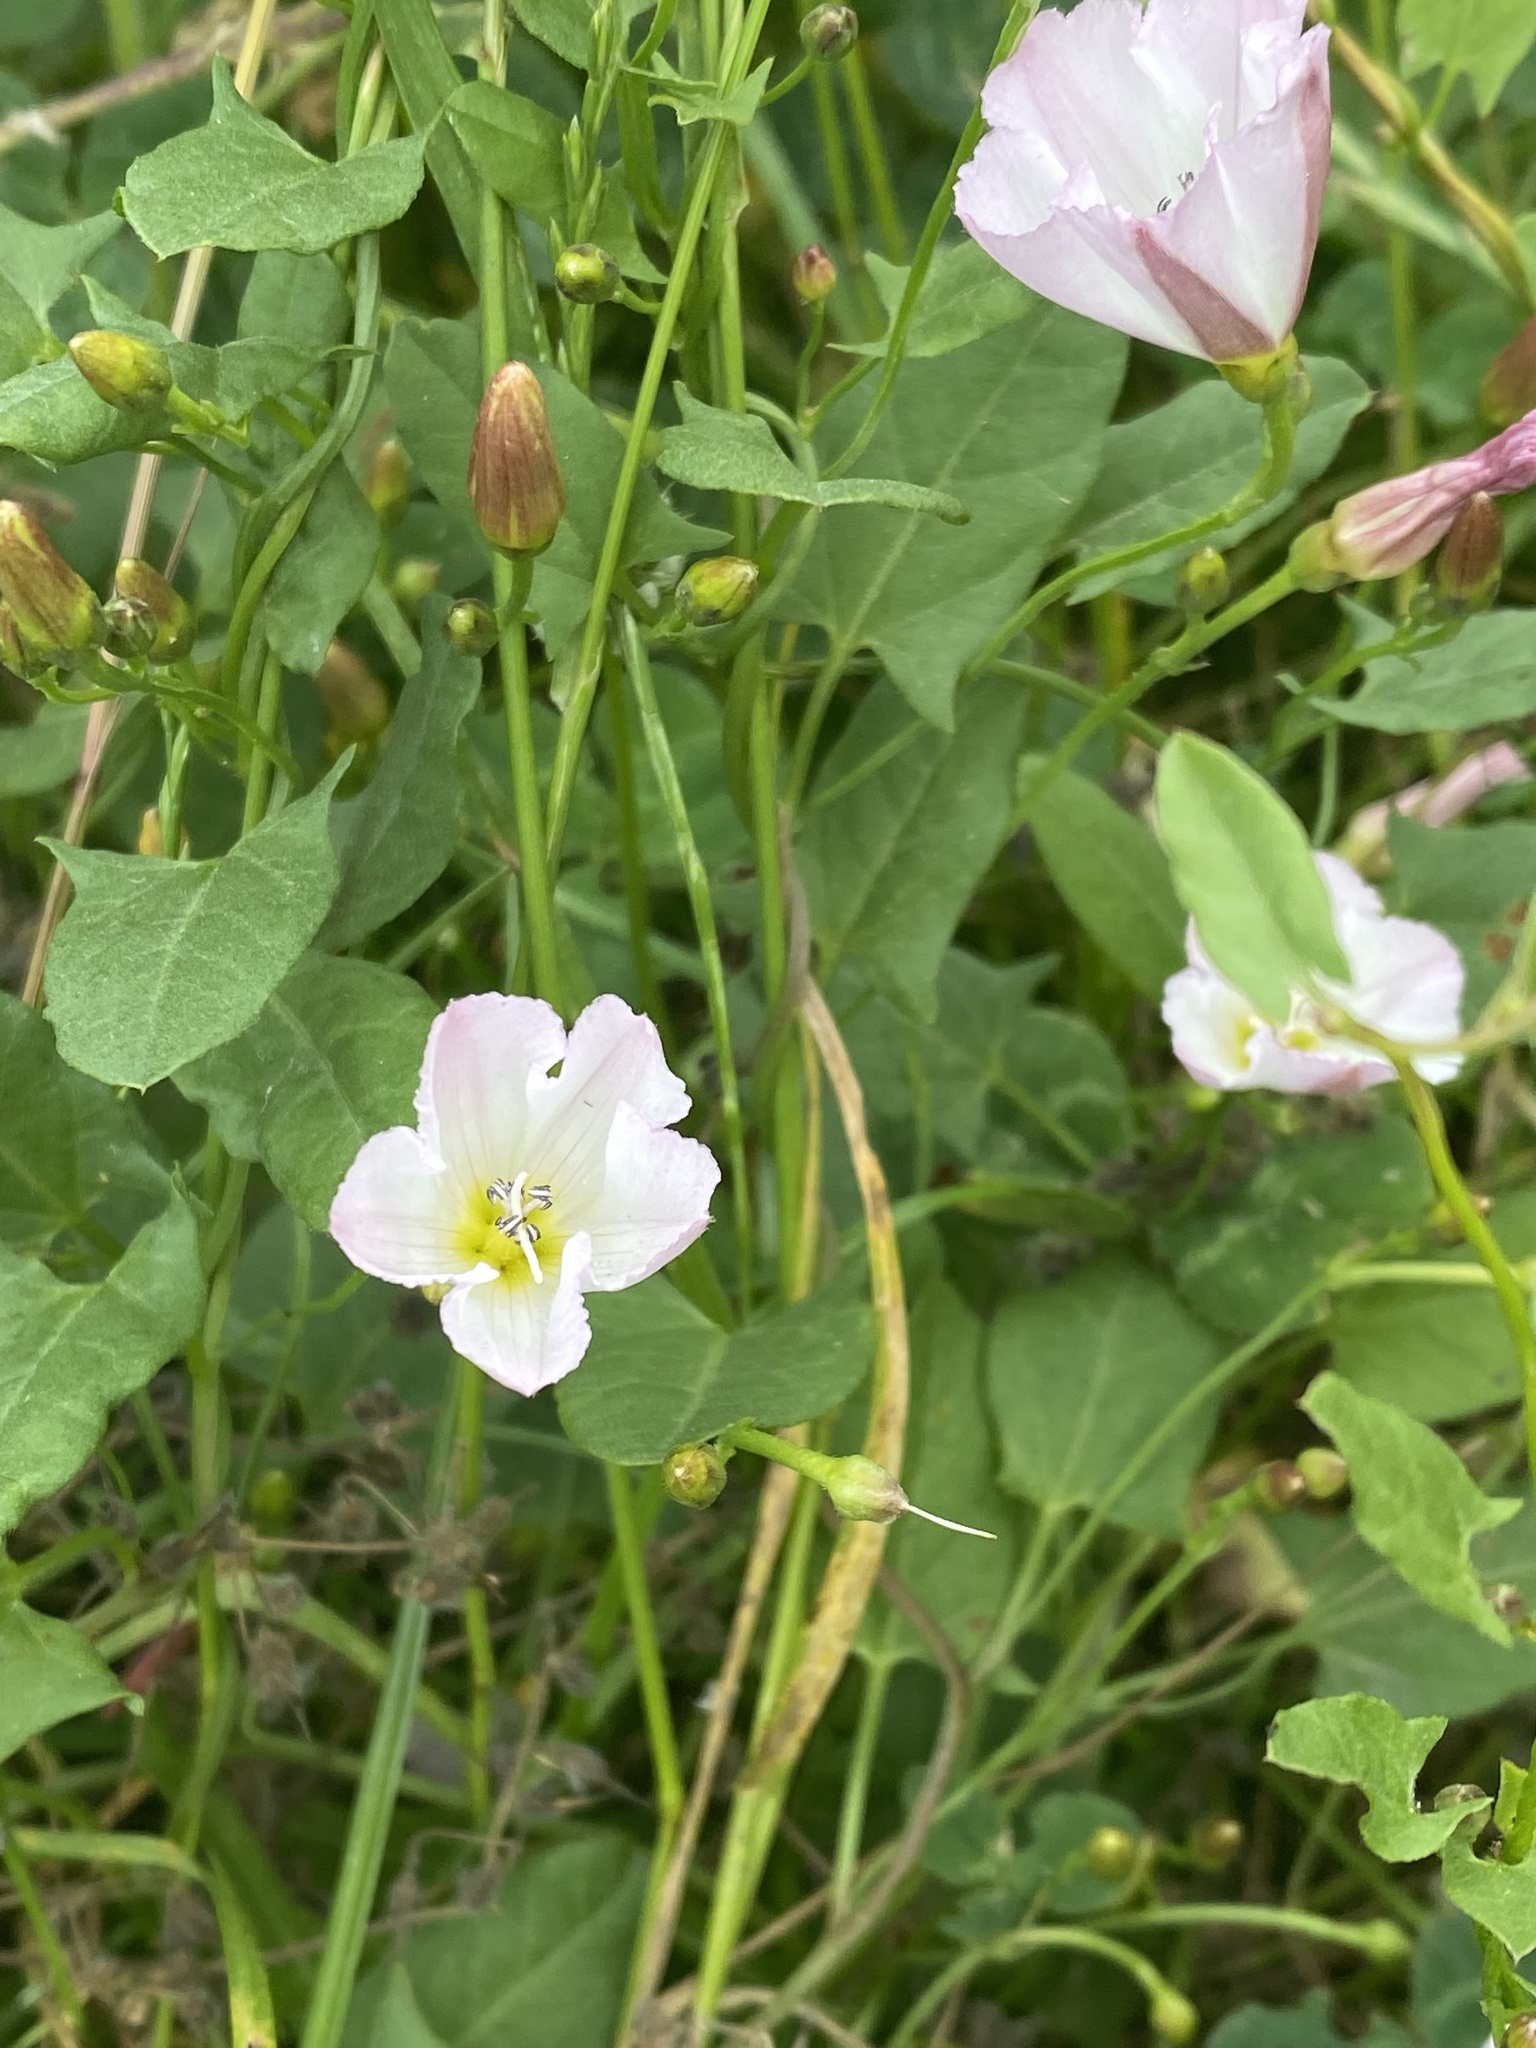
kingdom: Plantae
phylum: Tracheophyta
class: Magnoliopsida
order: Solanales
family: Convolvulaceae
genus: Convolvulus
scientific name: Convolvulus arvensis
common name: Field bindweed
